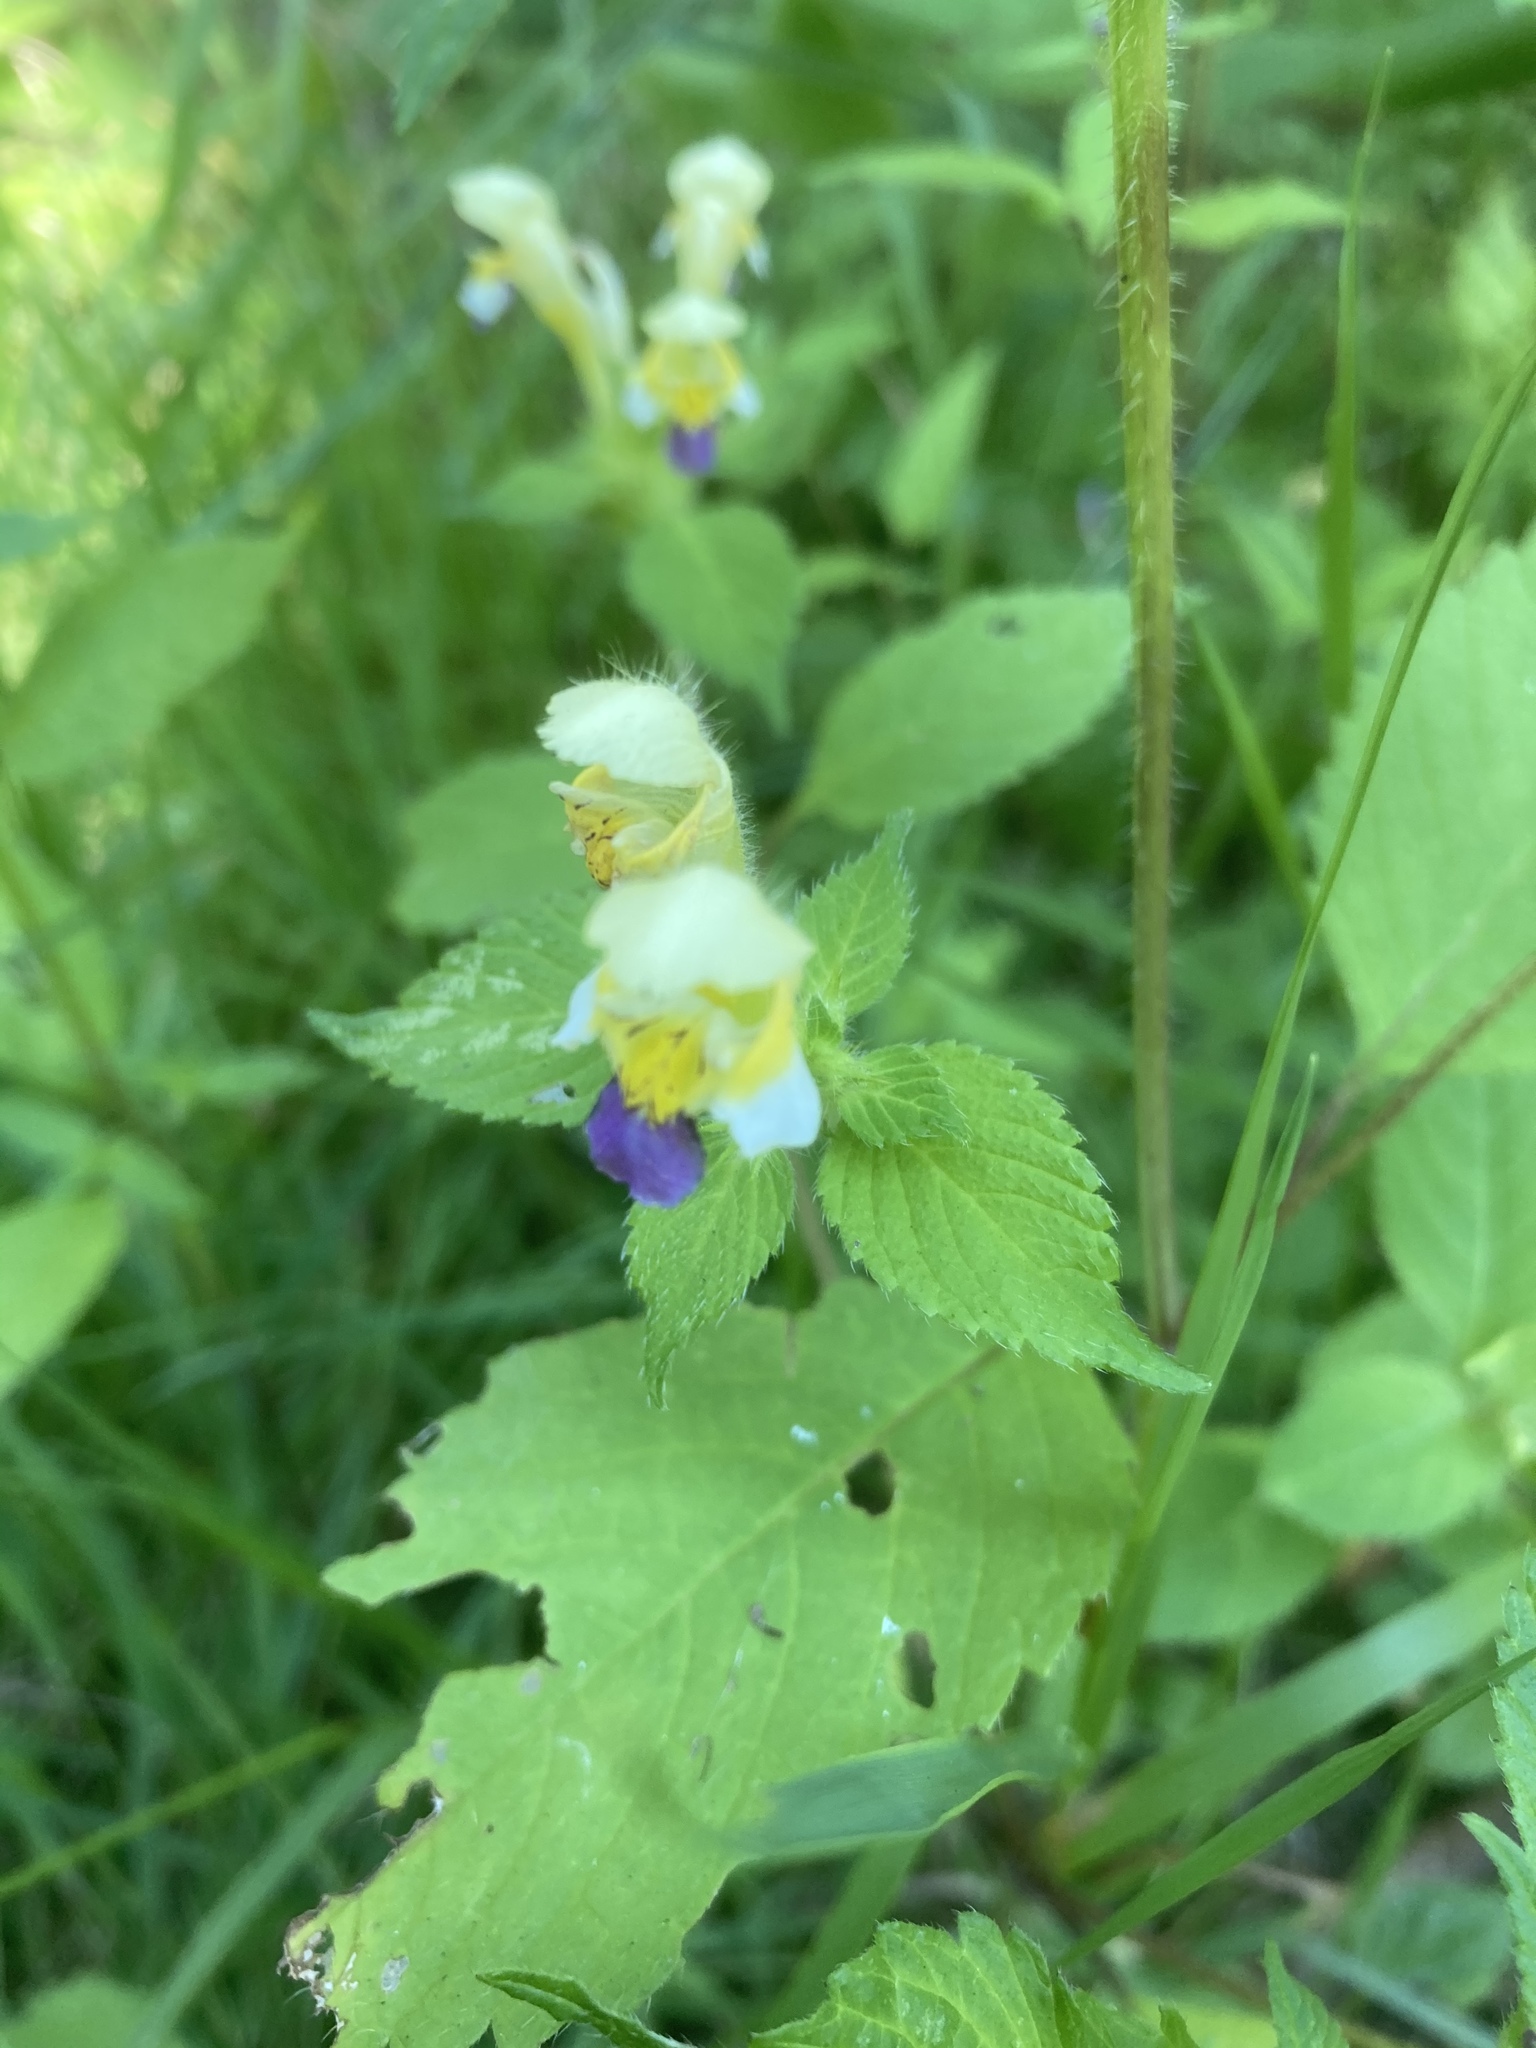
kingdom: Plantae
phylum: Tracheophyta
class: Magnoliopsida
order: Lamiales
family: Lamiaceae
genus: Galeopsis
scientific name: Galeopsis speciosa
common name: Large-flowered hemp-nettle
